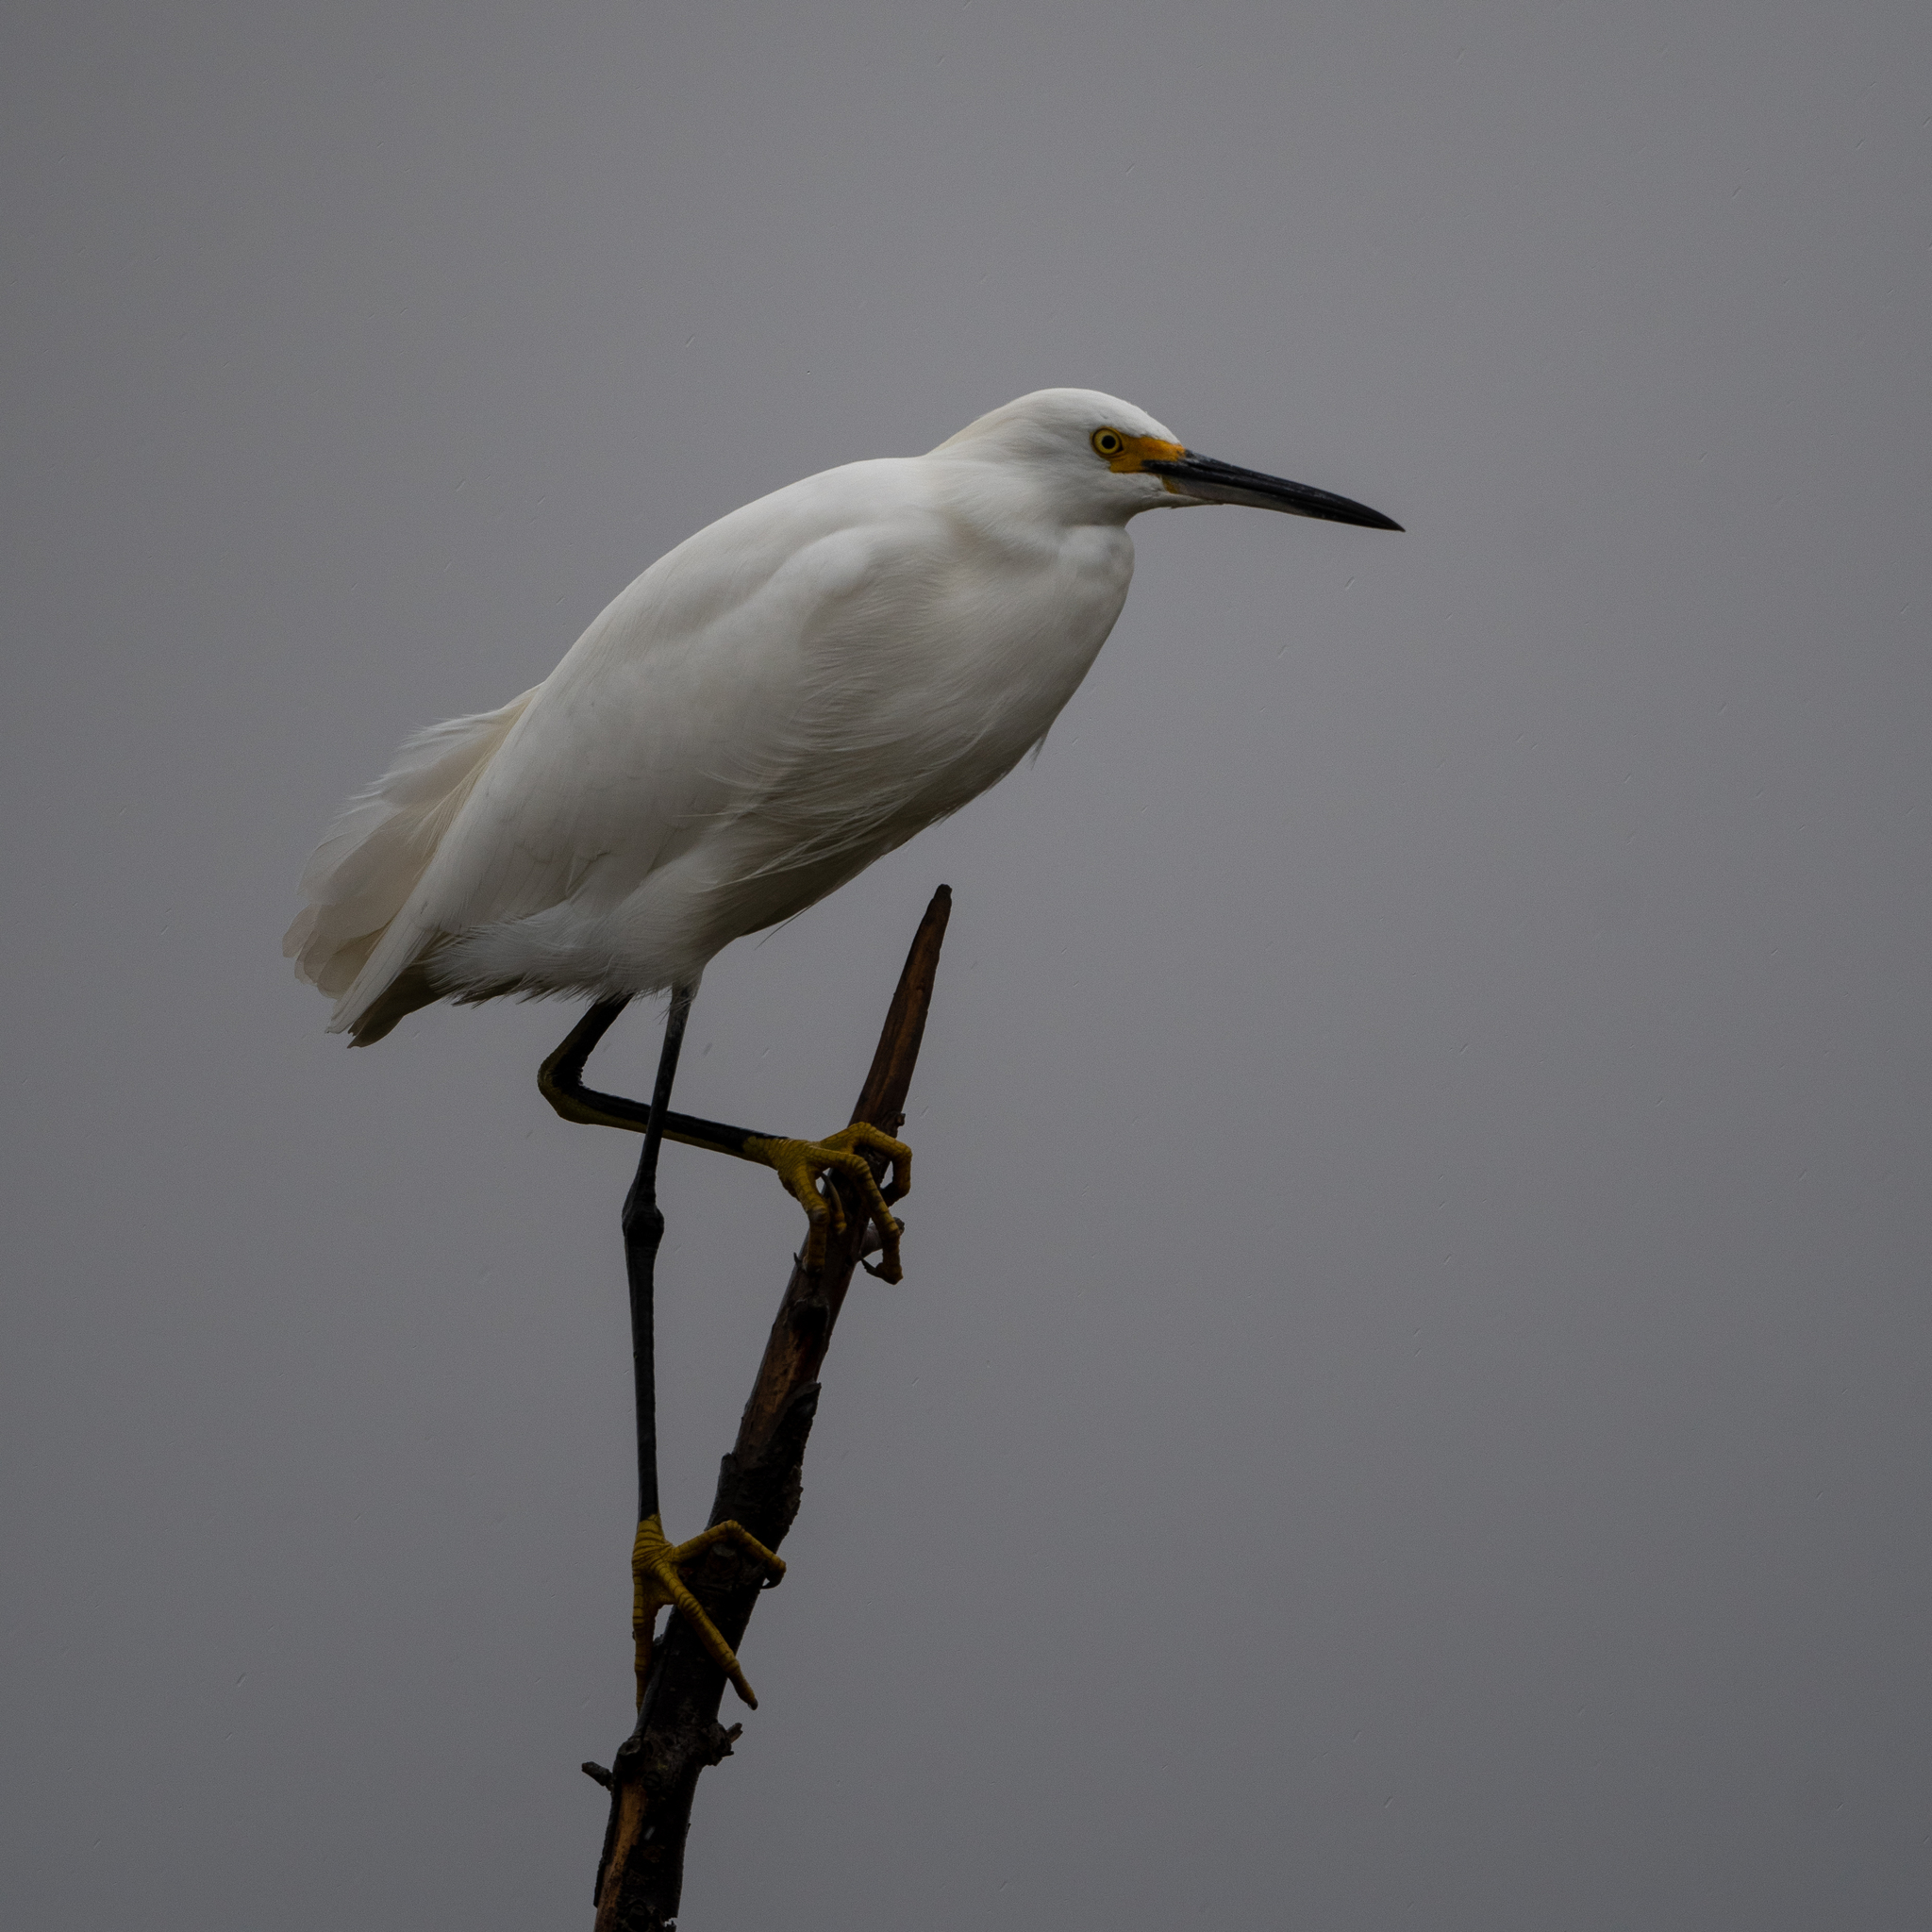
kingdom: Animalia
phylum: Chordata
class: Aves
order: Pelecaniformes
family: Ardeidae
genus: Egretta
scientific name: Egretta thula
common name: Snowy egret
